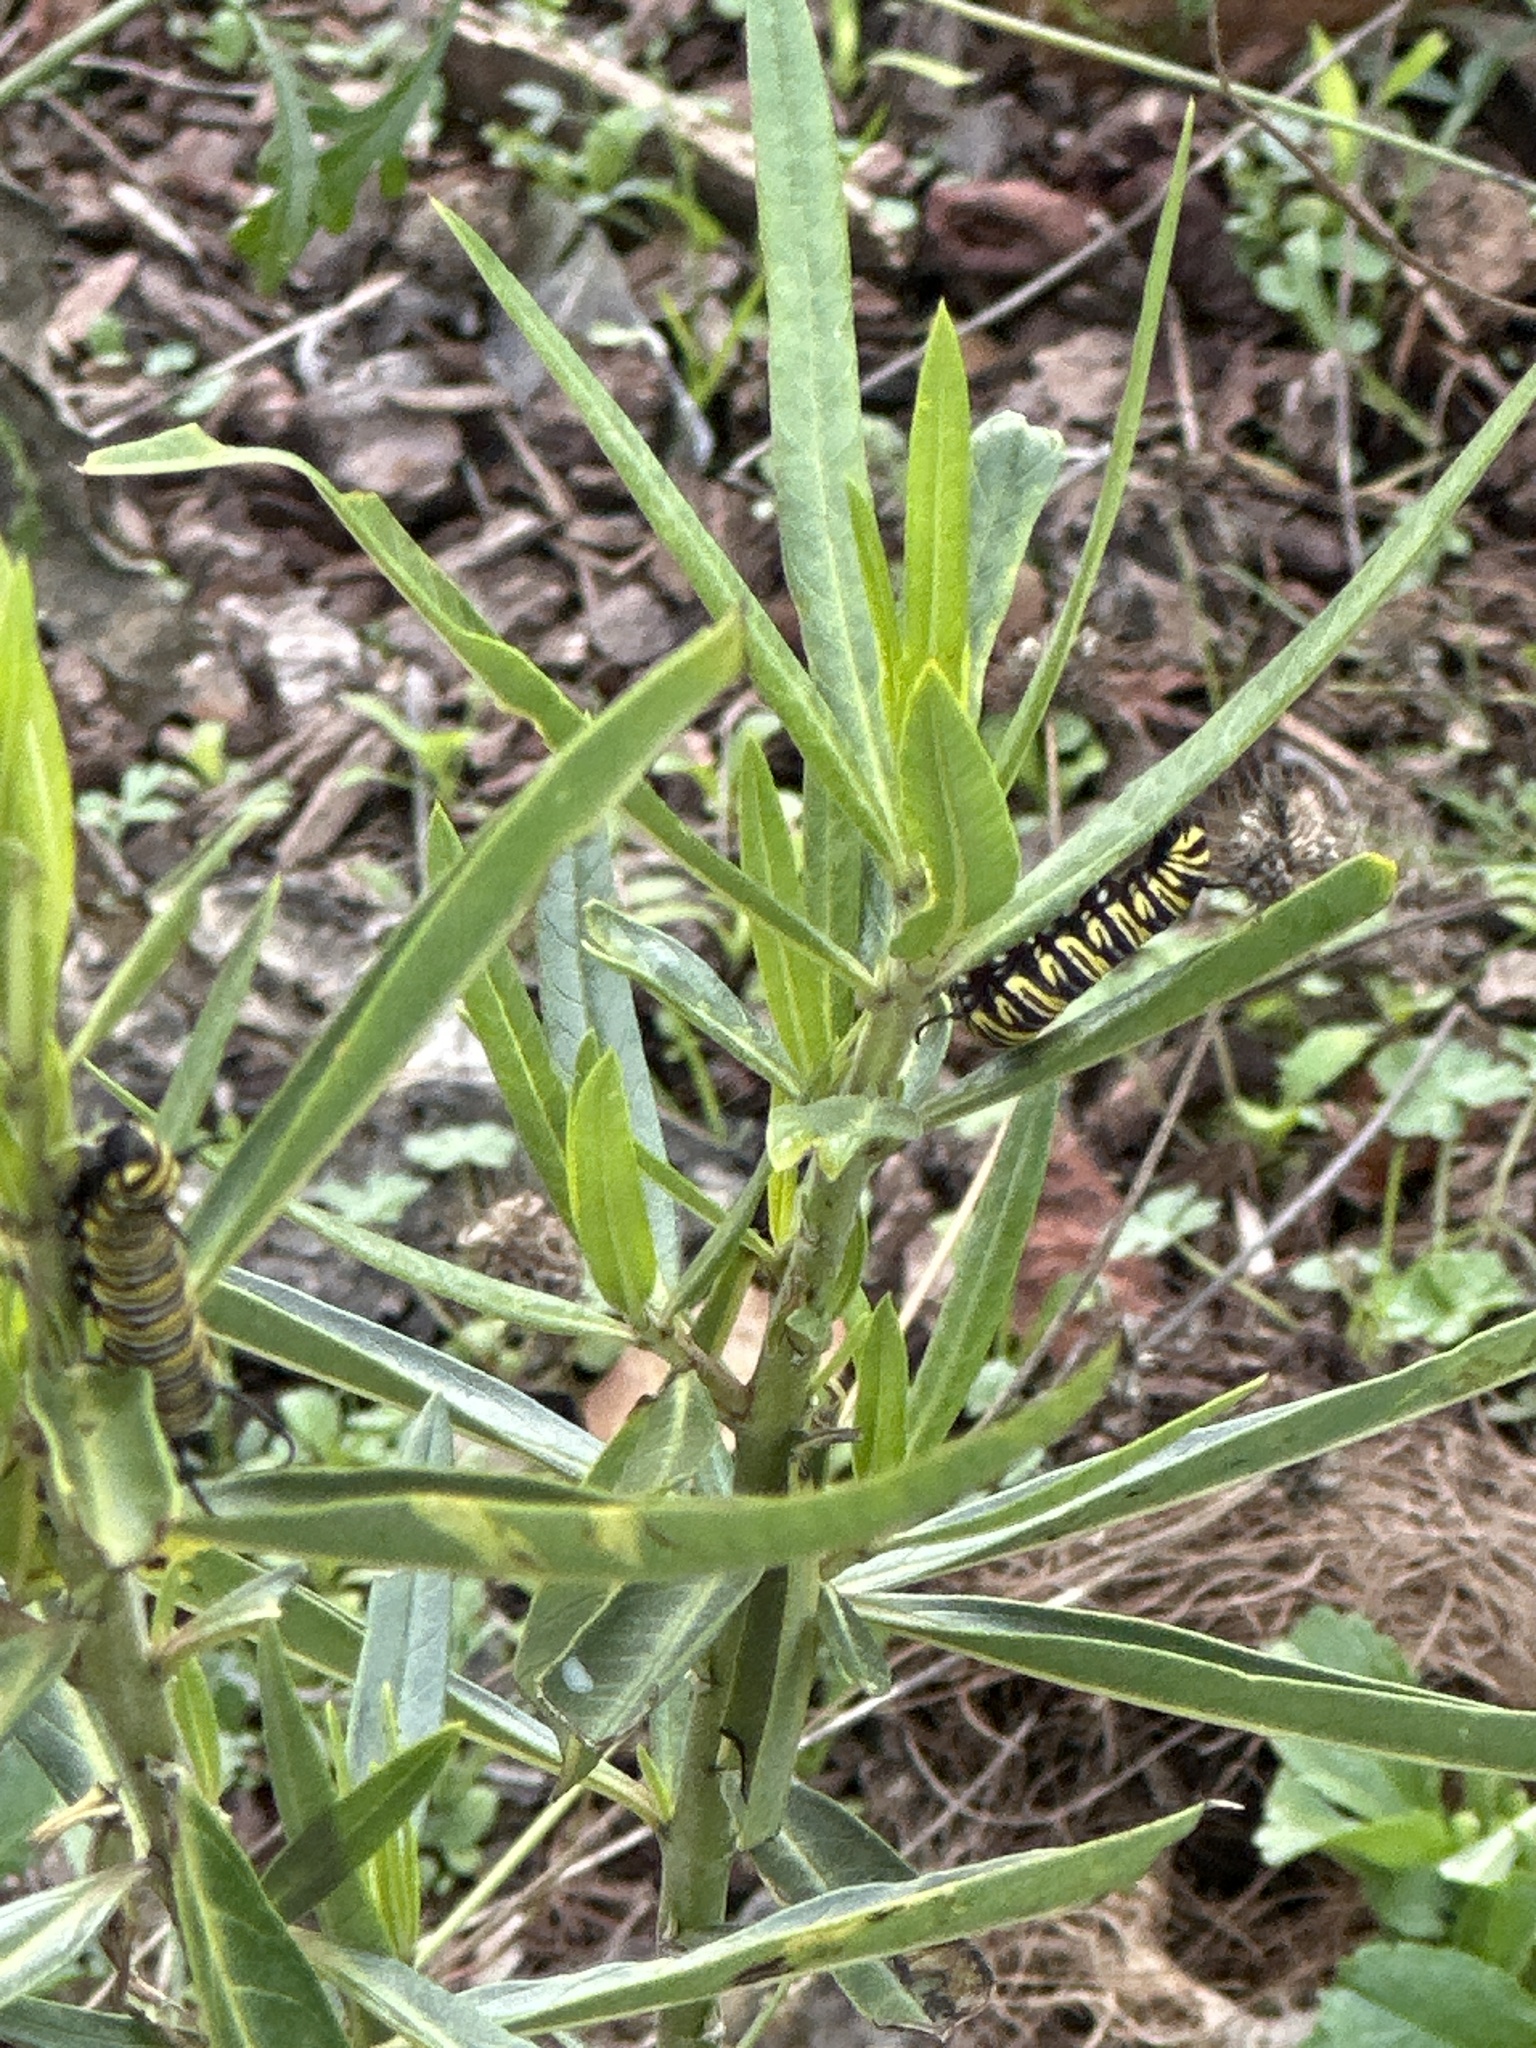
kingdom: Animalia
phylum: Arthropoda
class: Insecta
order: Lepidoptera
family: Nymphalidae
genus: Danaus
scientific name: Danaus plexippus
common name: Monarch
